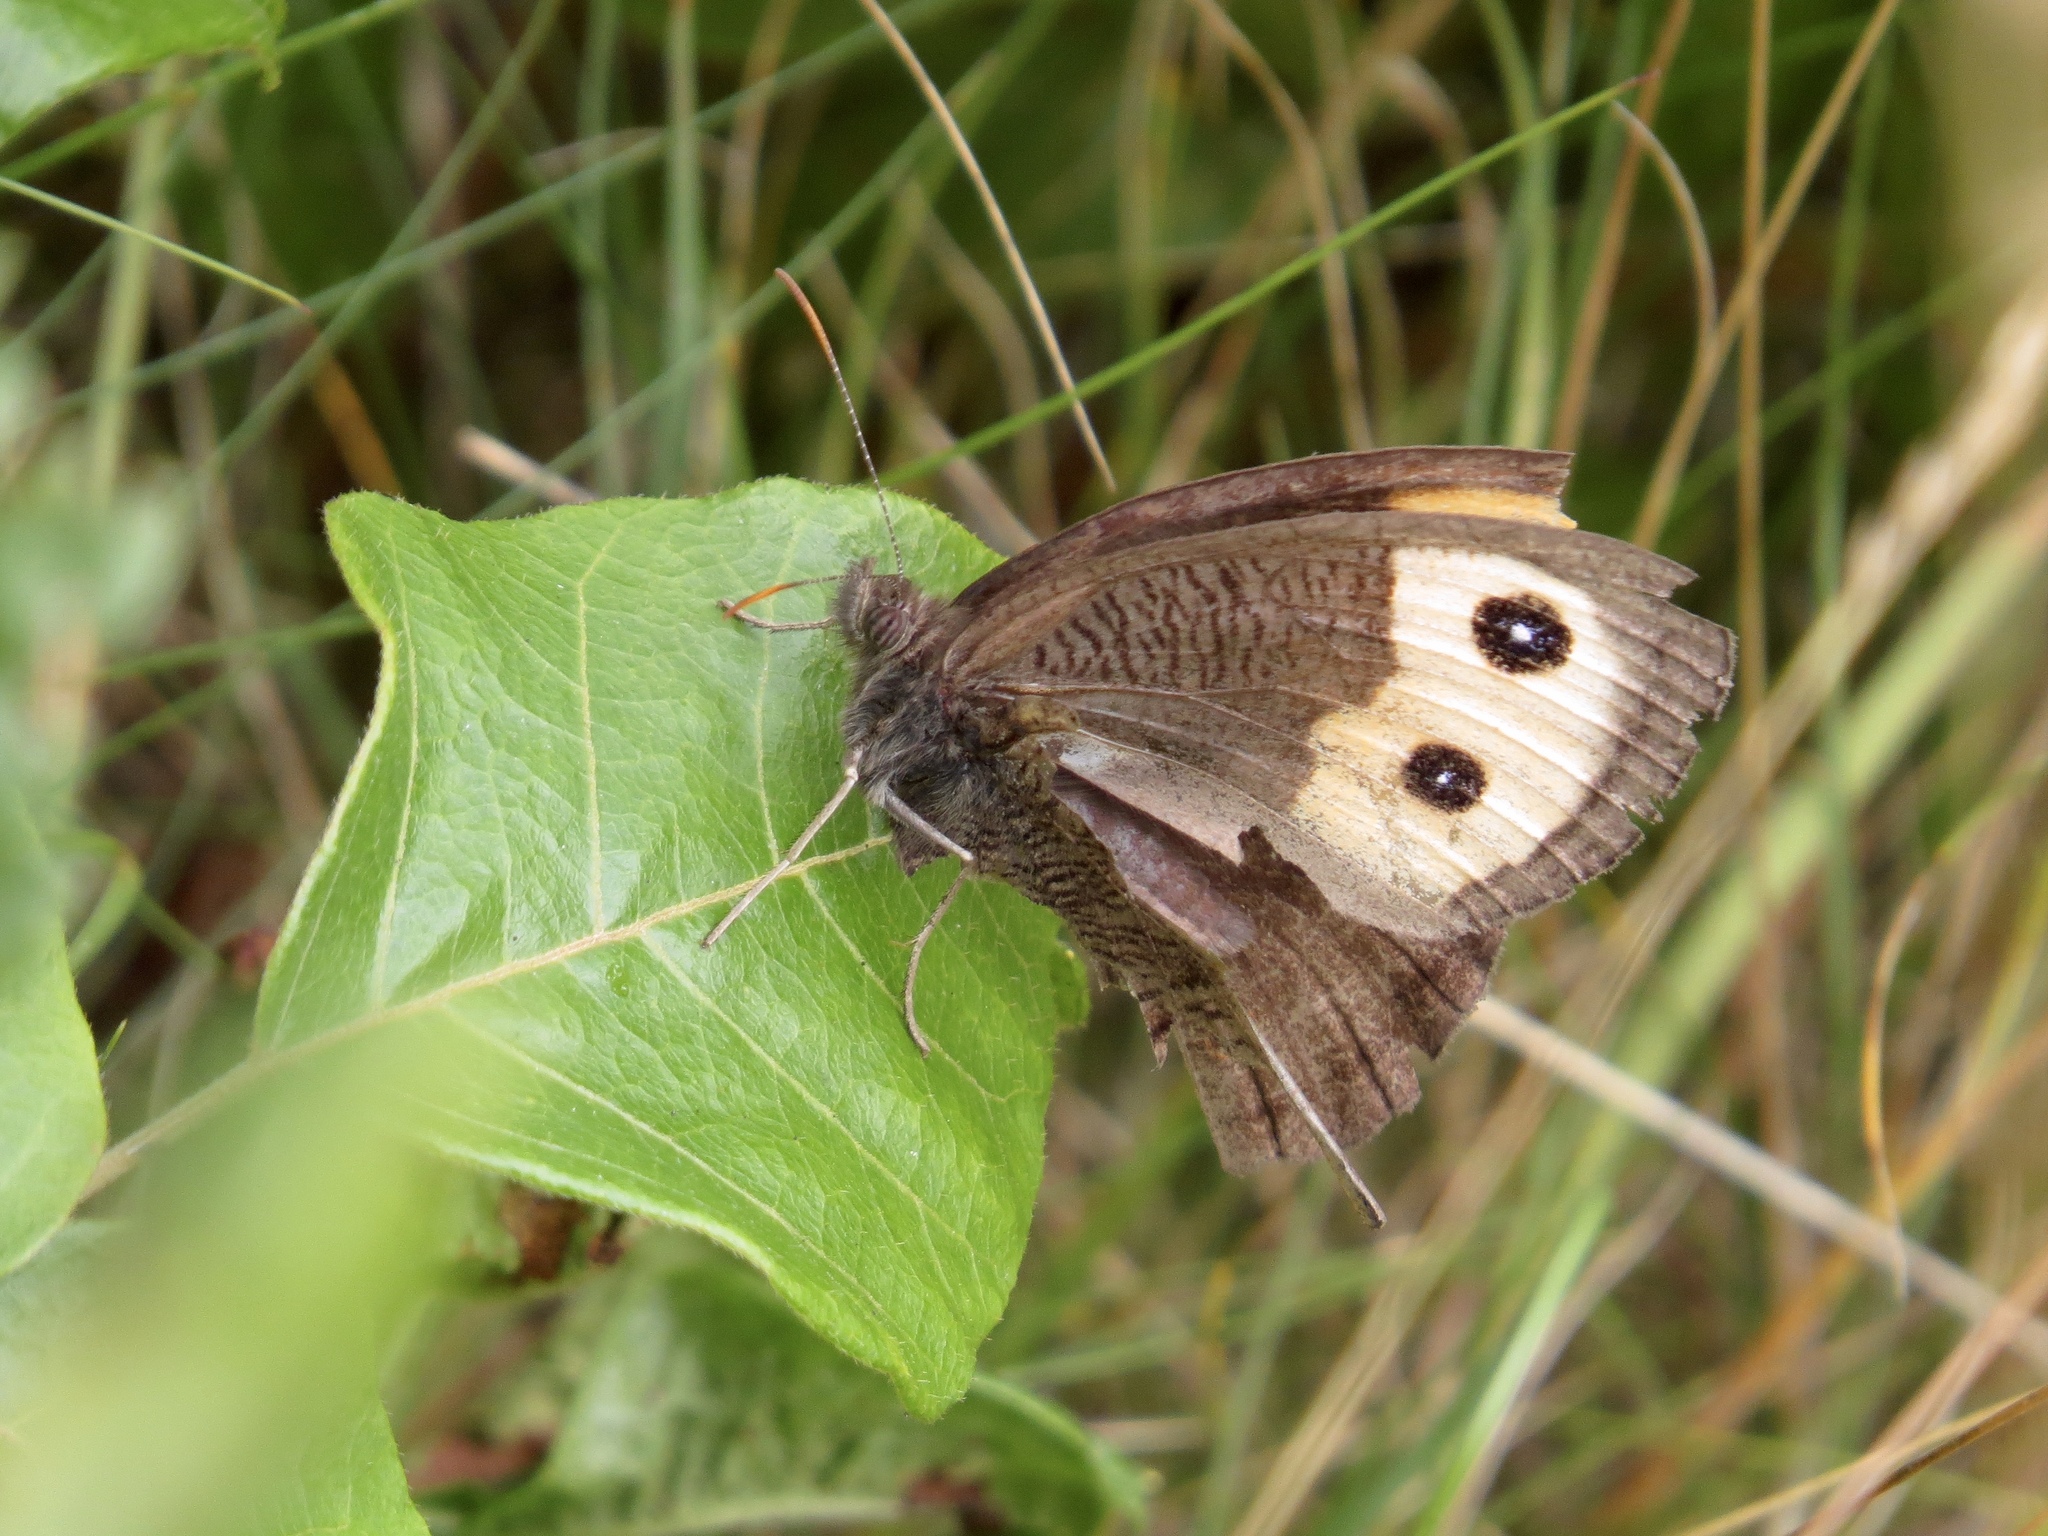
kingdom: Animalia
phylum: Arthropoda
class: Insecta
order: Lepidoptera
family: Nymphalidae
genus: Cercyonis
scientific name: Cercyonis pegala
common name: Common wood-nymph
